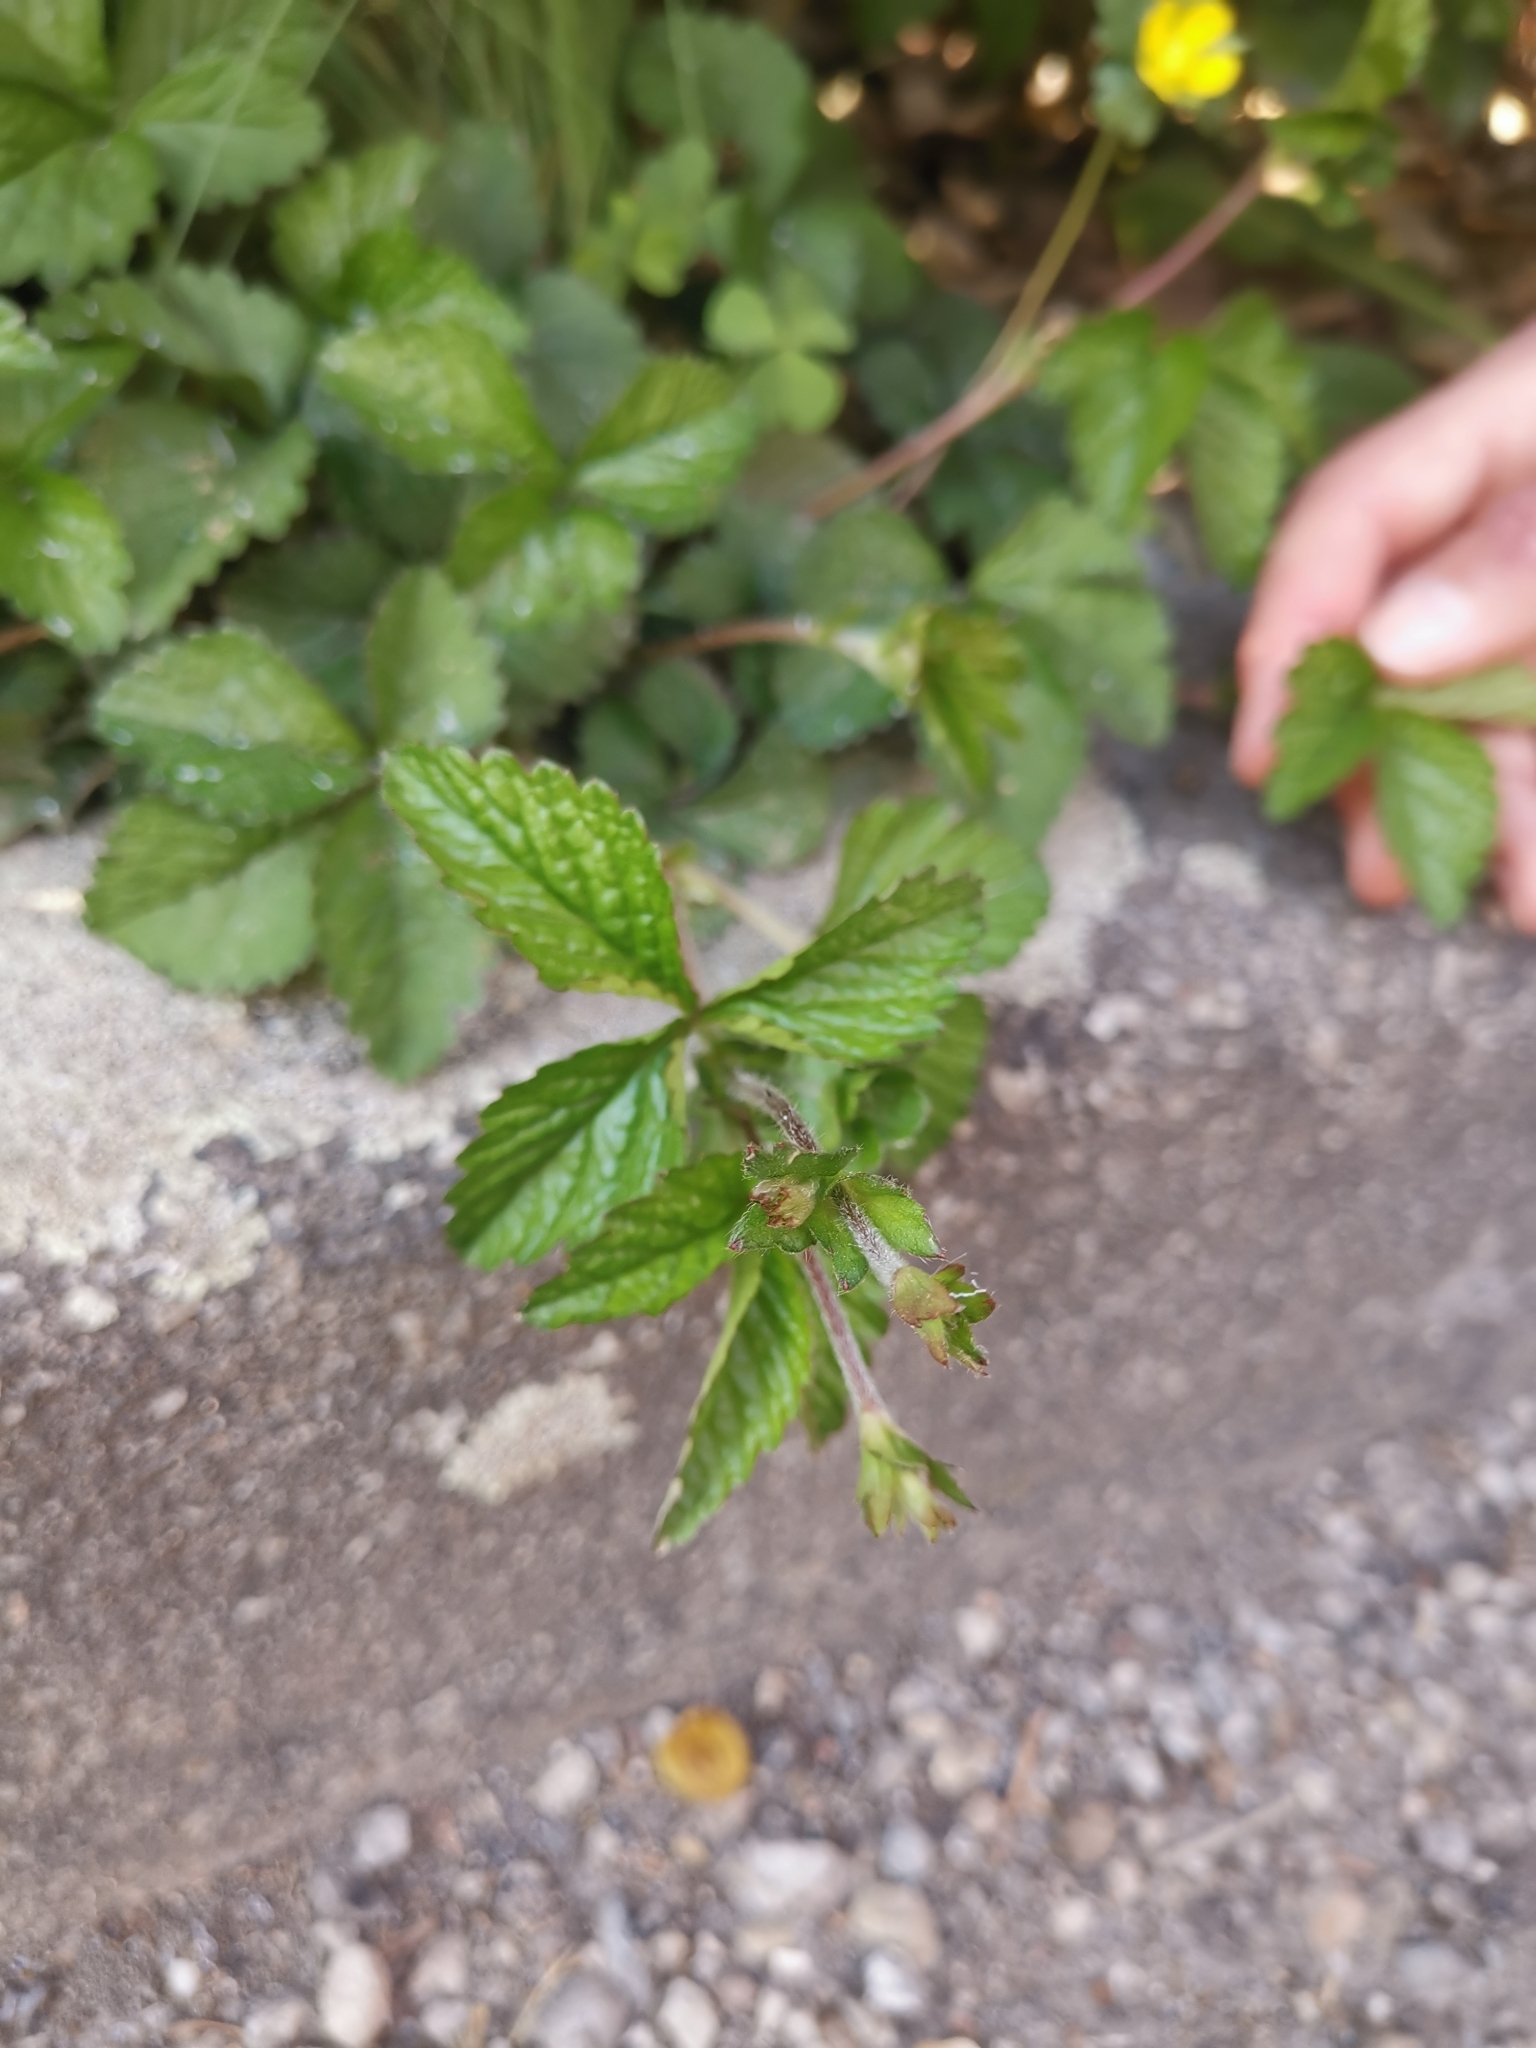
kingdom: Plantae
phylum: Tracheophyta
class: Magnoliopsida
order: Rosales
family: Rosaceae
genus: Potentilla
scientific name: Potentilla indica
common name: Yellow-flowered strawberry
